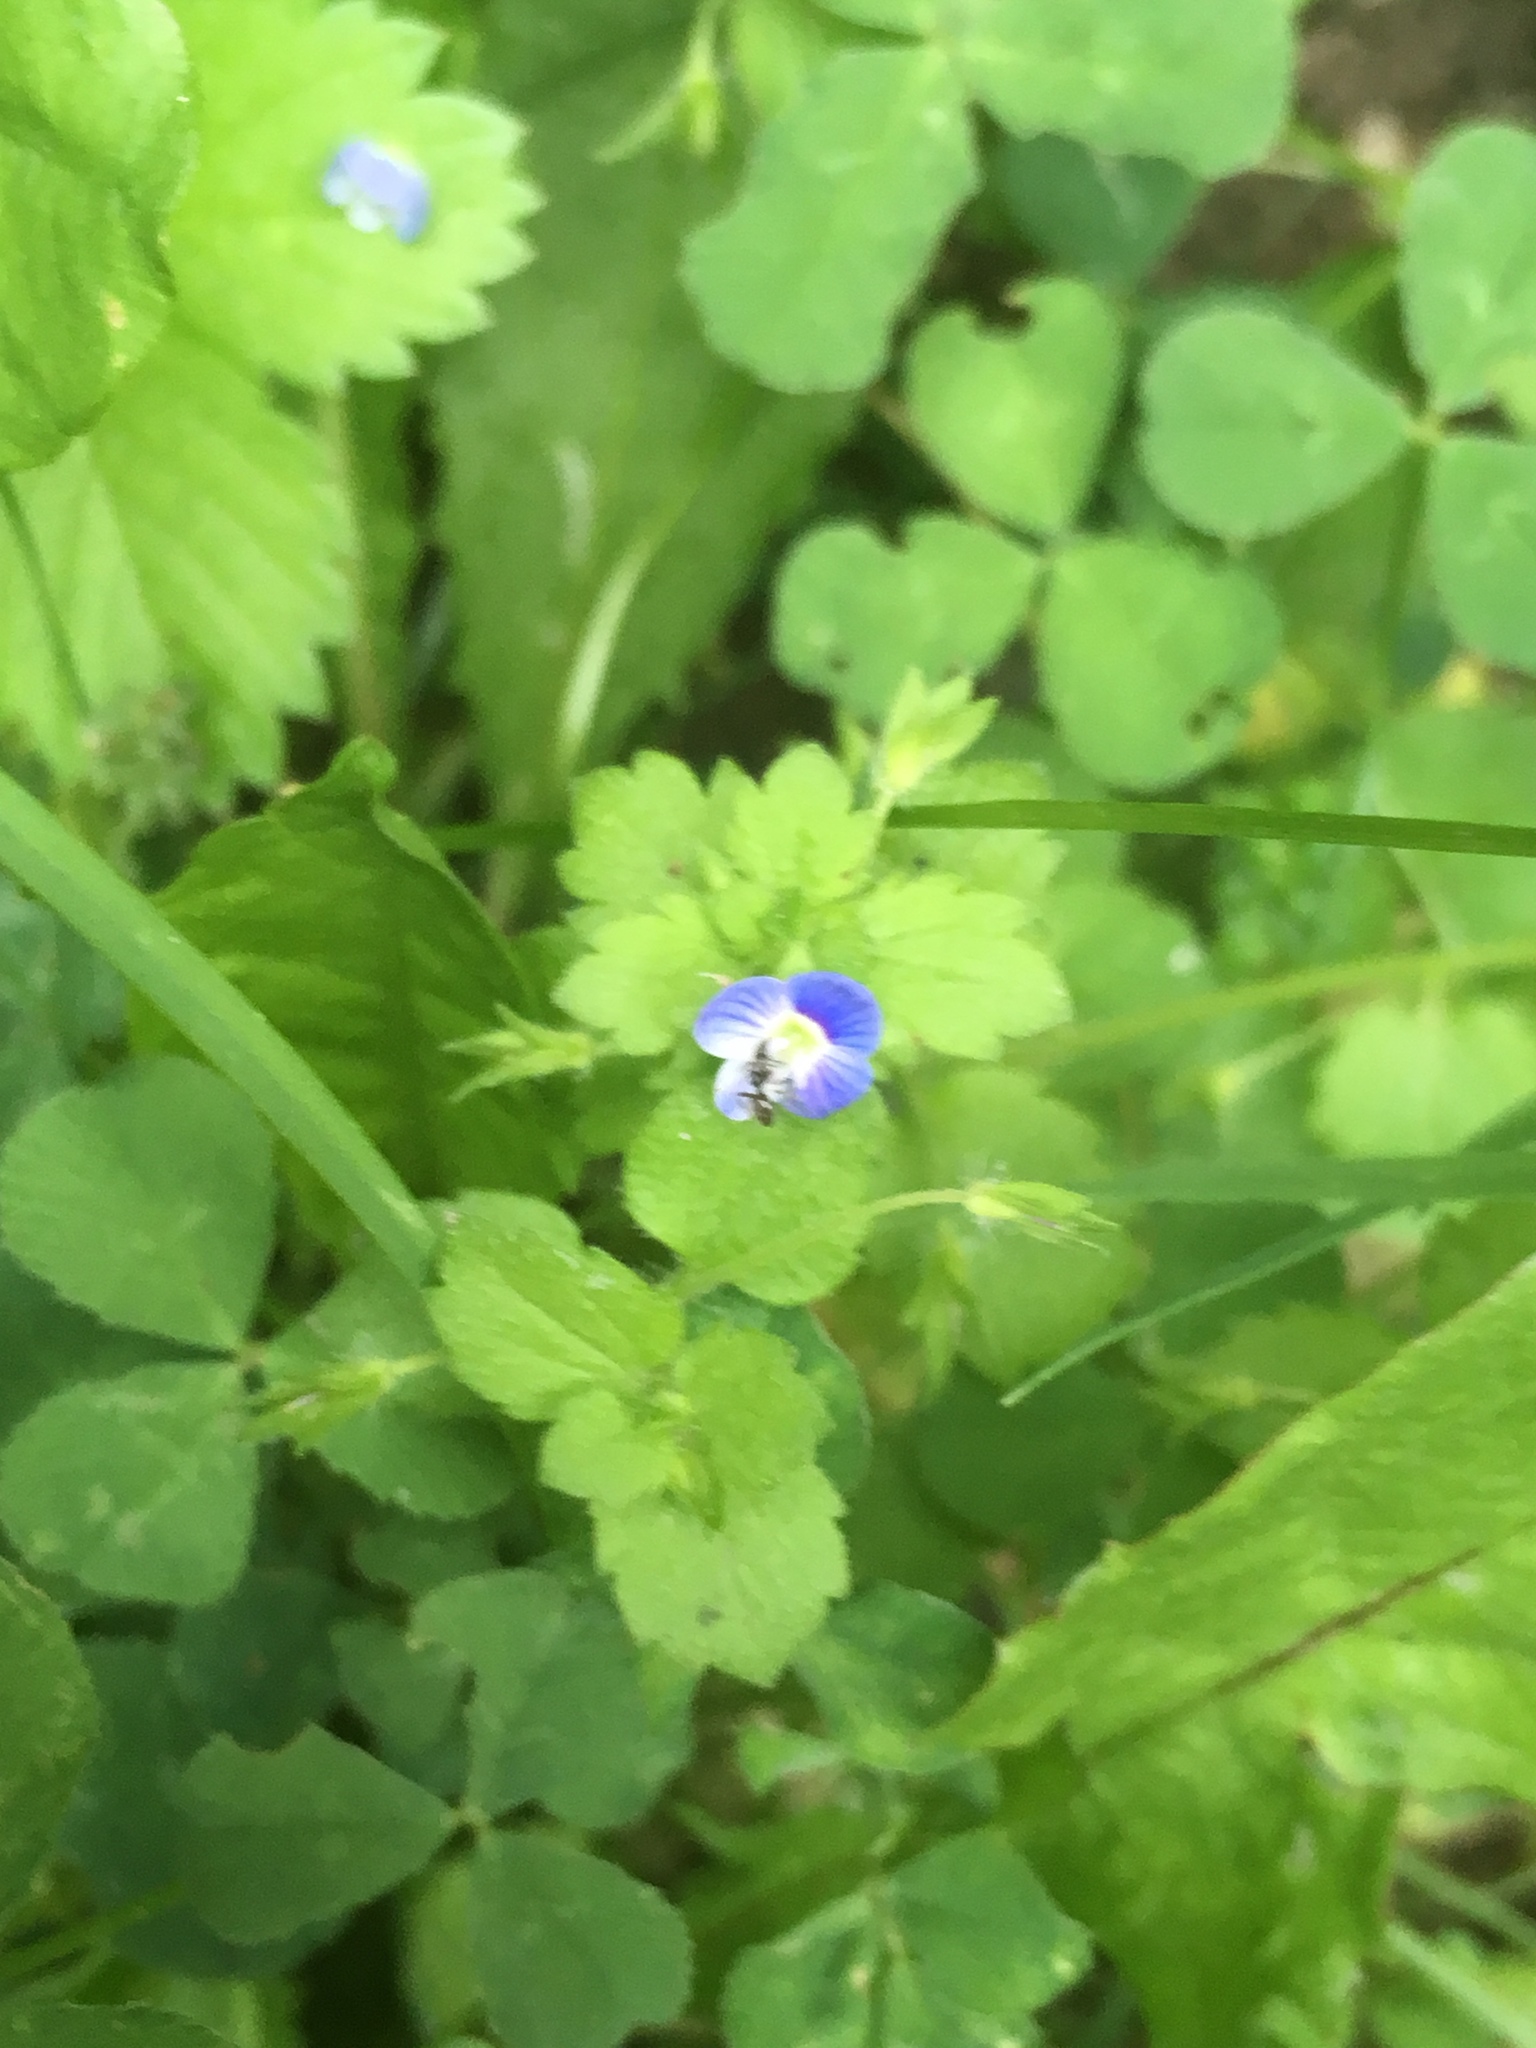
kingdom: Plantae
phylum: Tracheophyta
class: Magnoliopsida
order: Lamiales
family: Plantaginaceae
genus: Veronica
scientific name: Veronica persica
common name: Common field-speedwell
